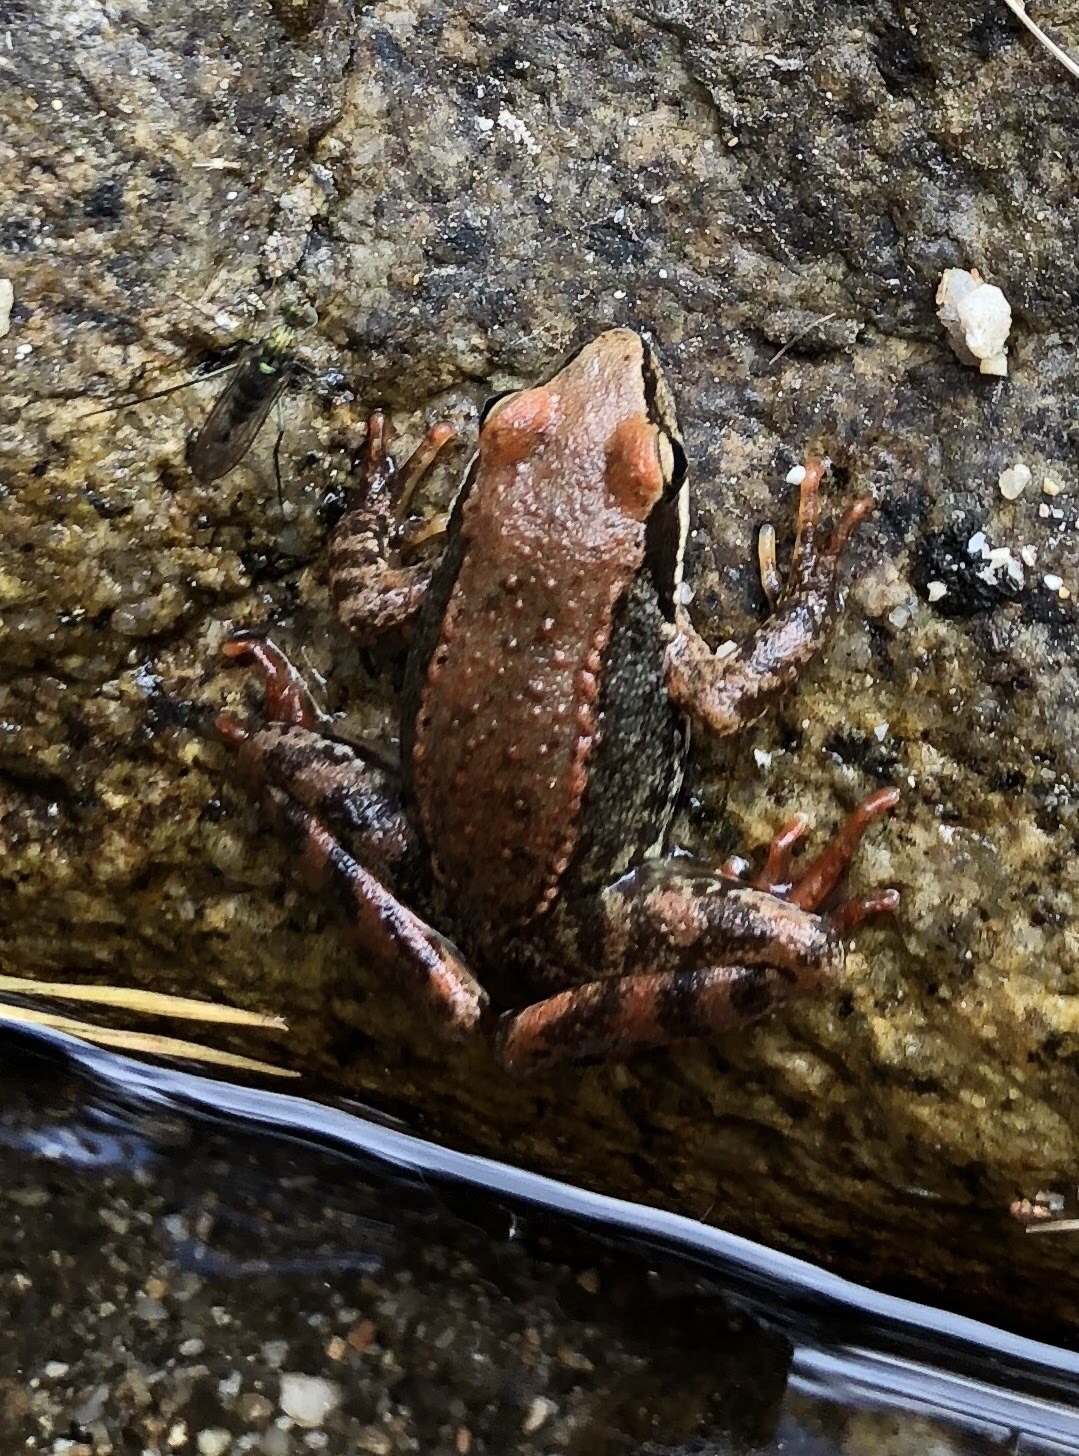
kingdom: Animalia
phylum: Chordata
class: Amphibia
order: Anura
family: Ranidae
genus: Rana
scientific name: Rana iberica
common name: Iberian frog
